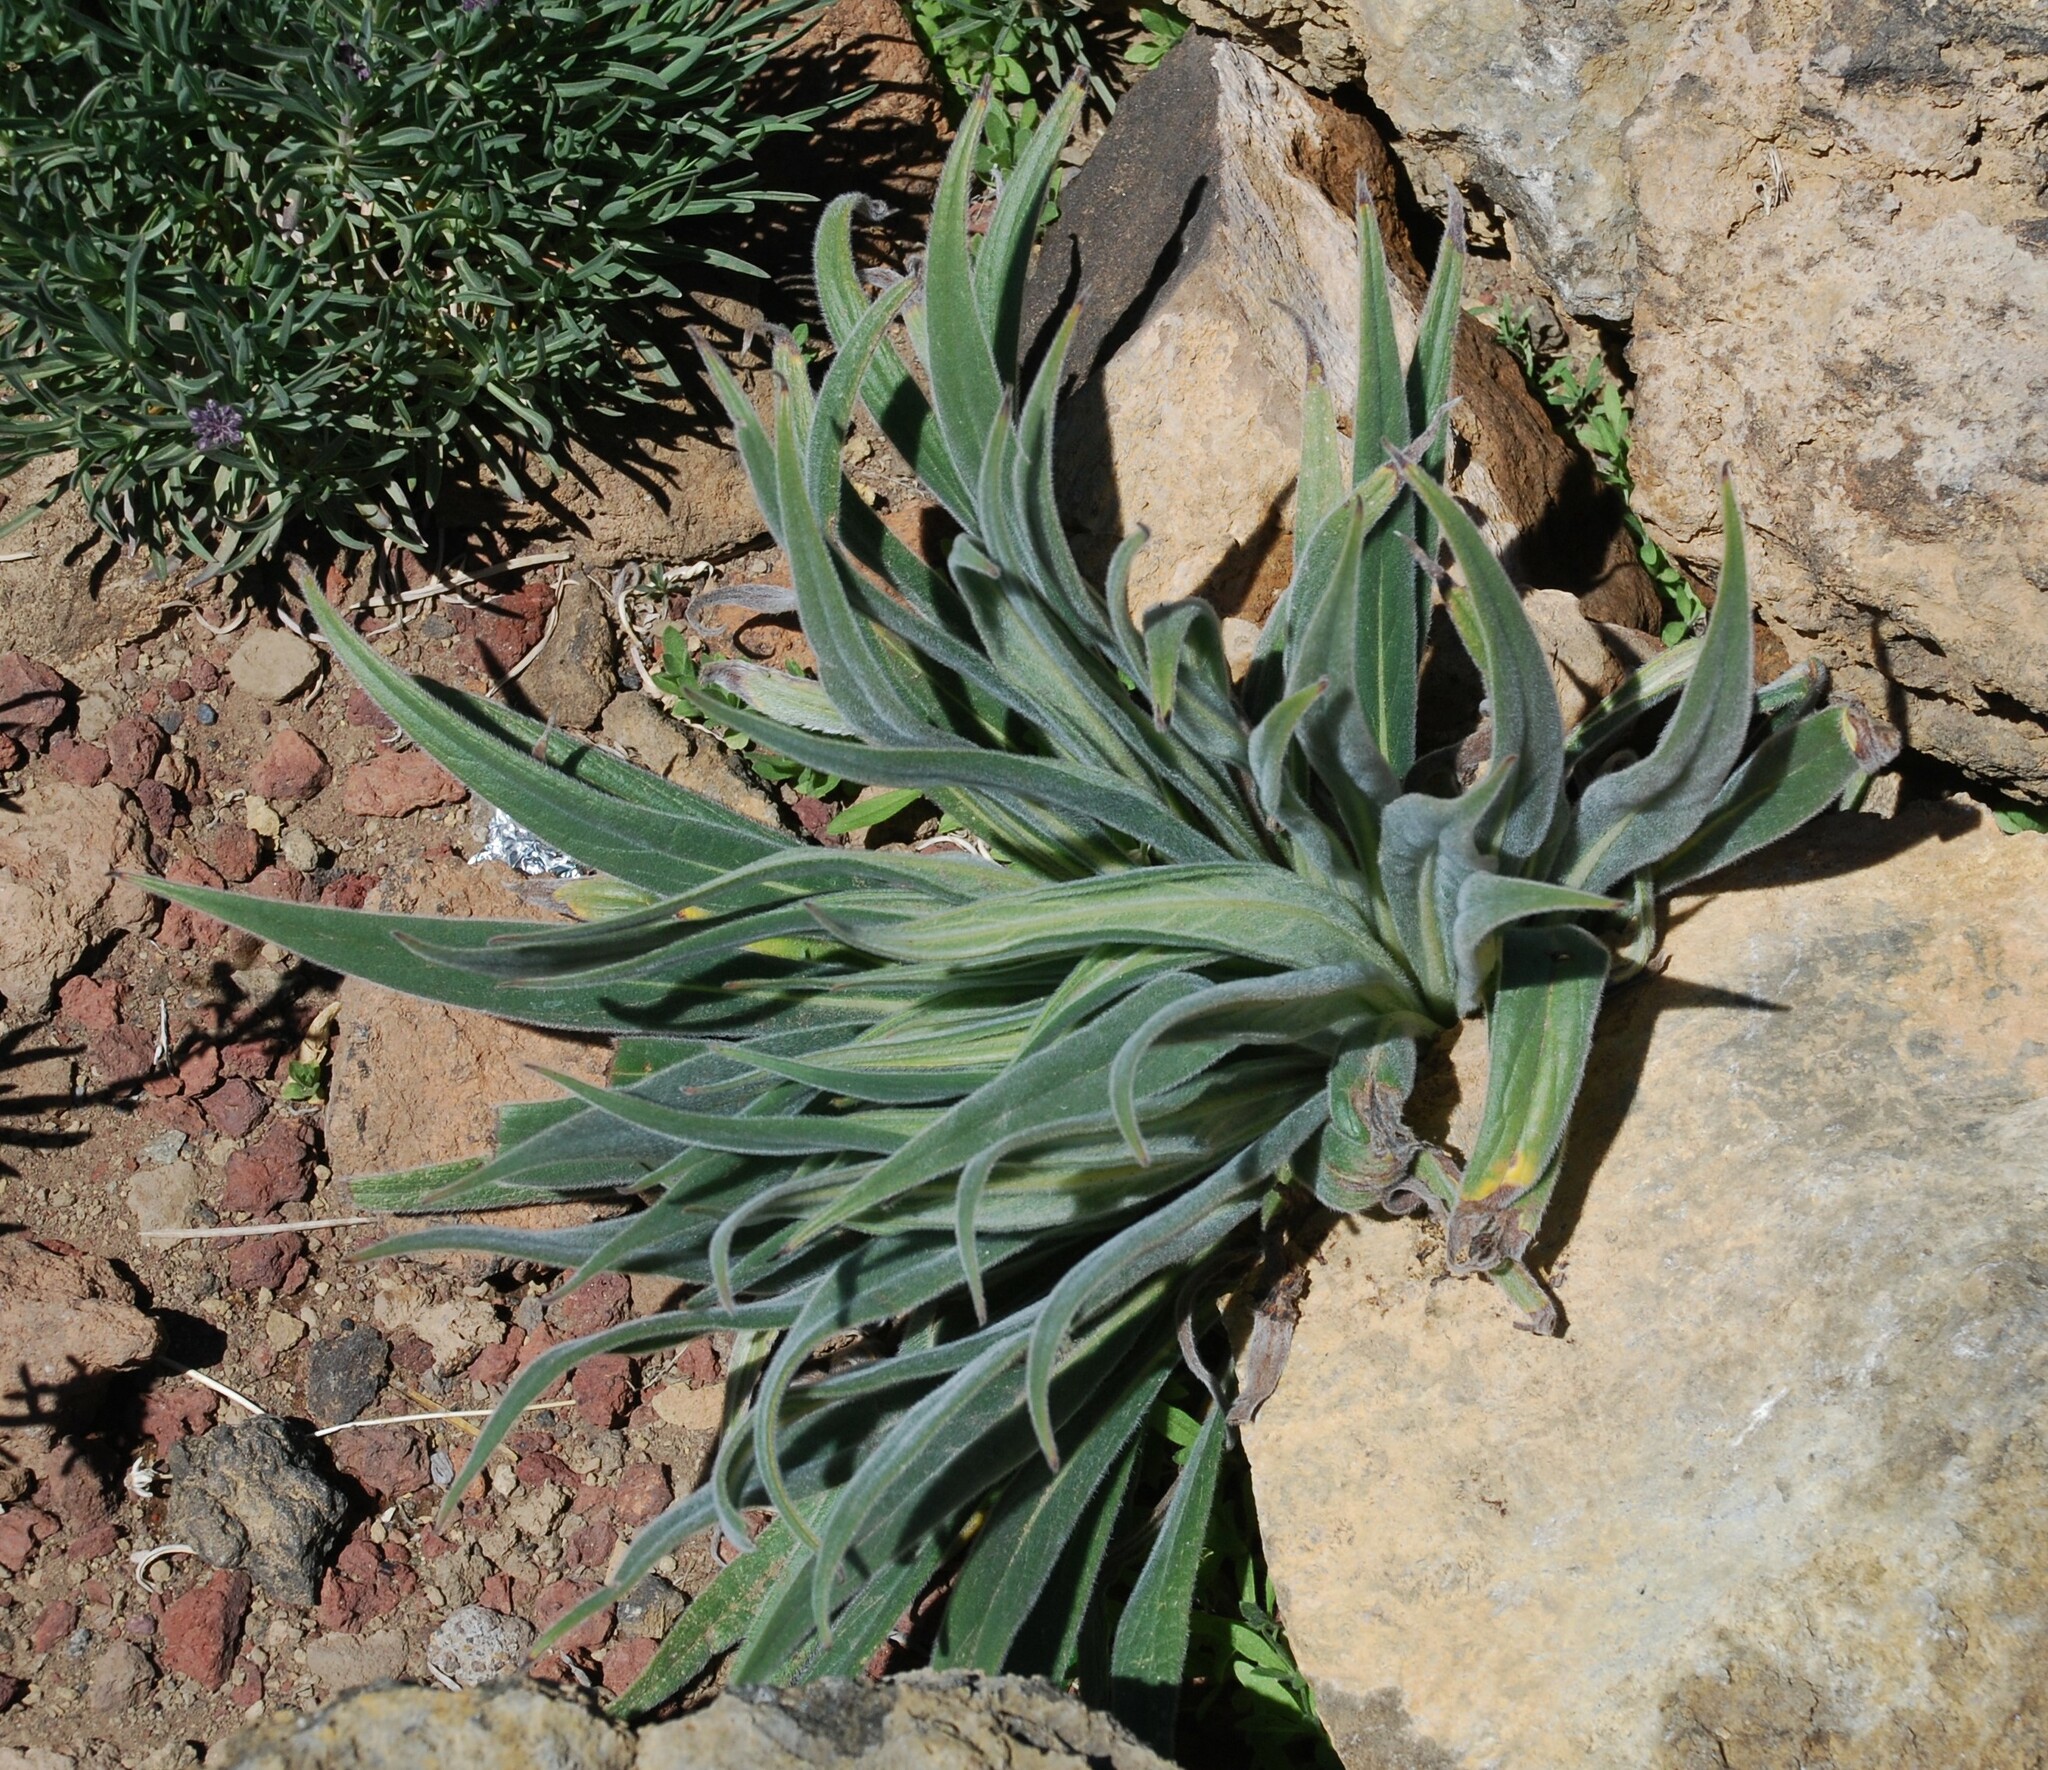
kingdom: Plantae
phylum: Tracheophyta
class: Magnoliopsida
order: Boraginales
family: Boraginaceae
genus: Echium
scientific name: Echium wildpretii
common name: Tower-of-jewels
